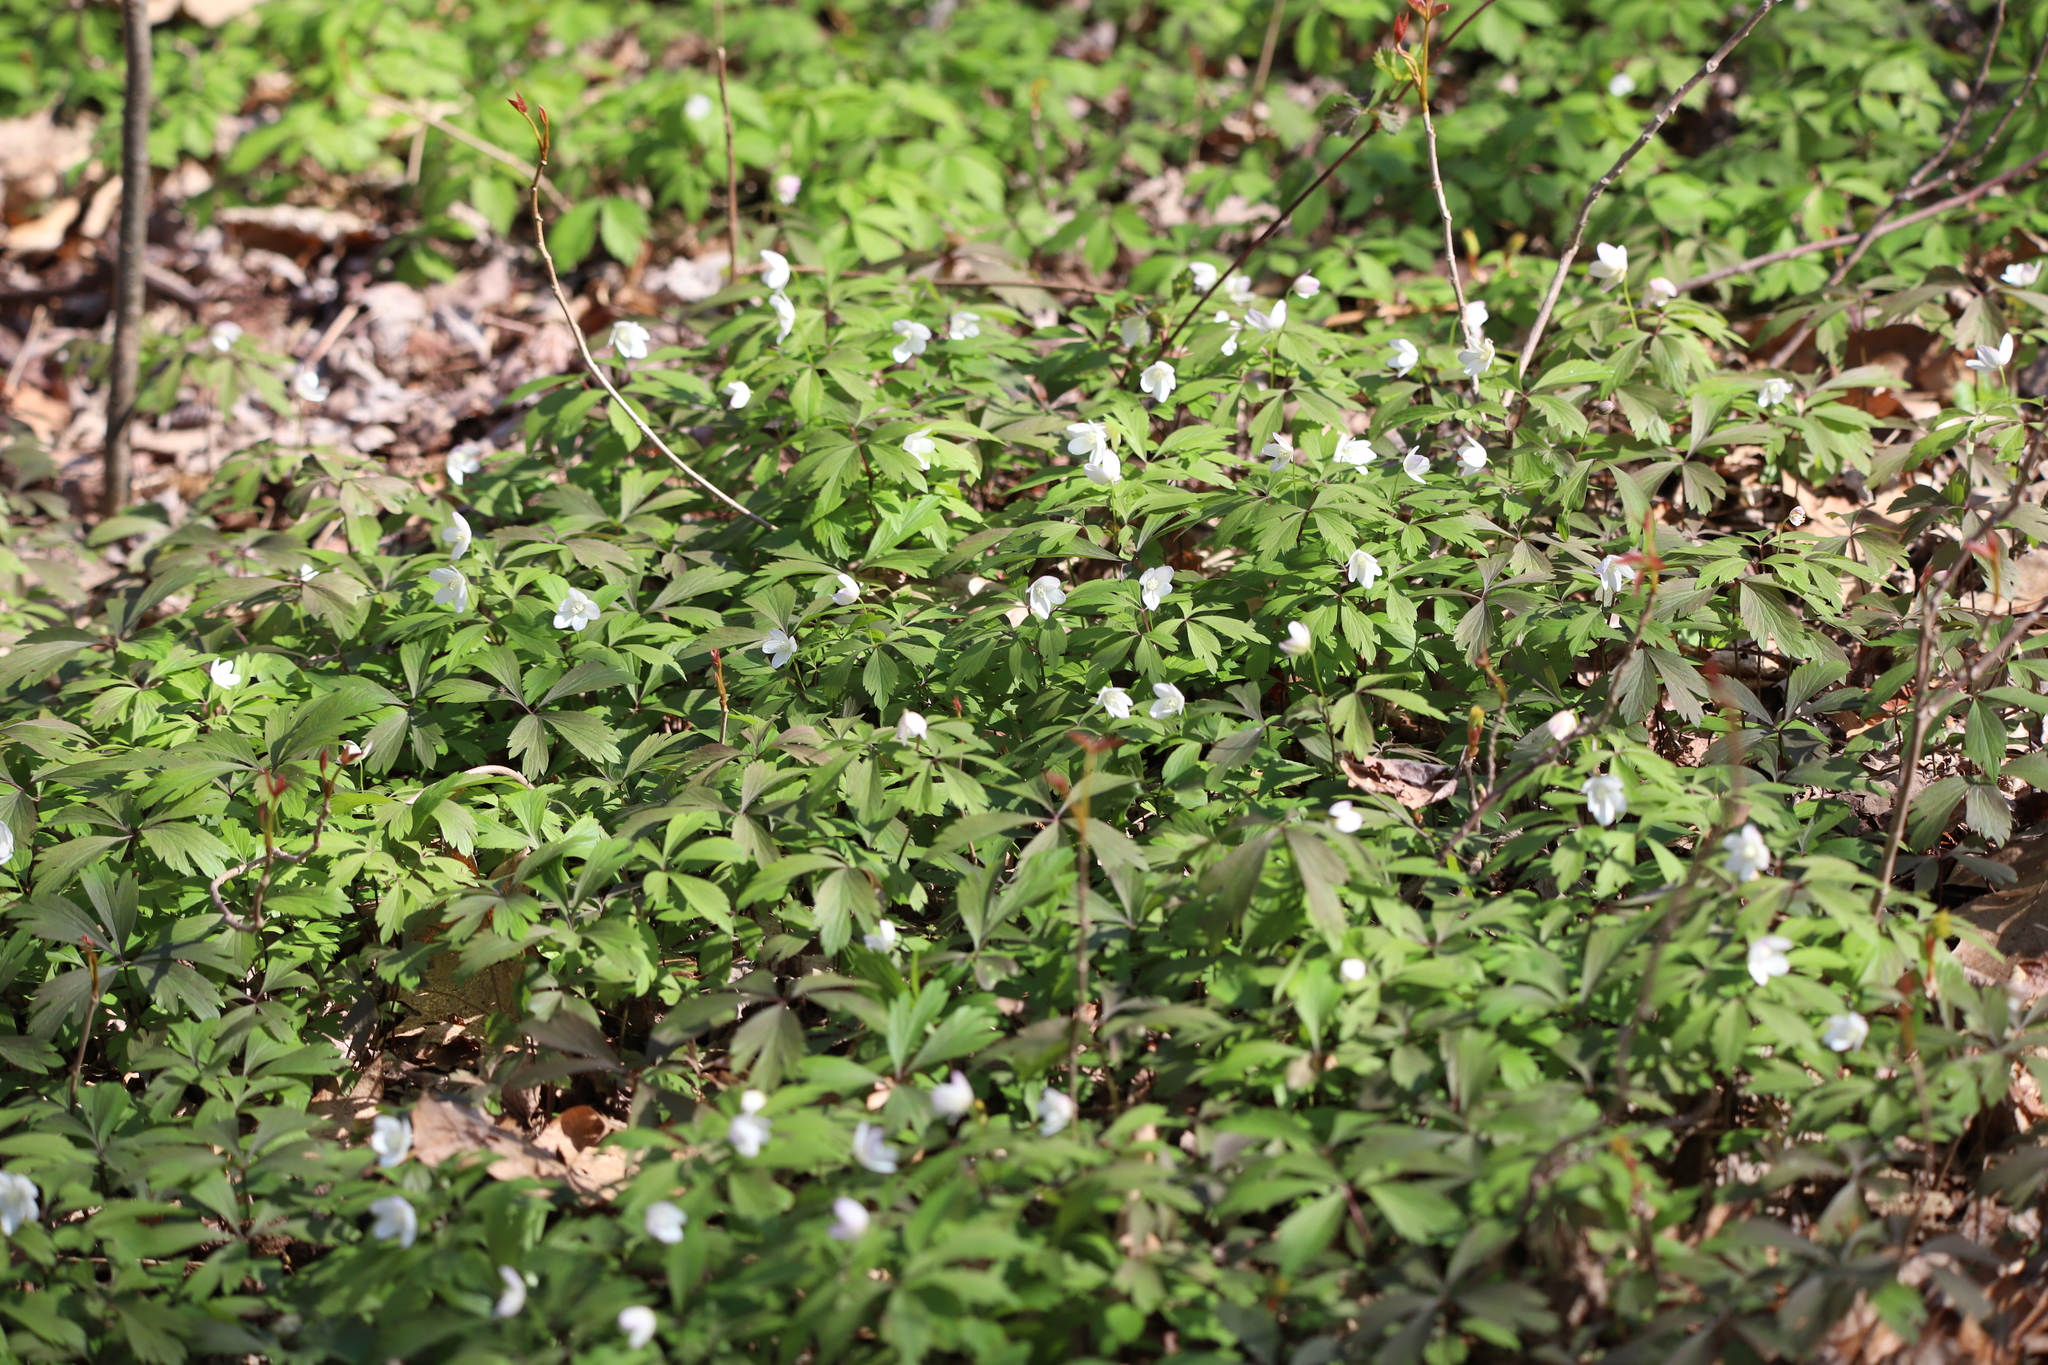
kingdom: Plantae
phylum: Tracheophyta
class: Magnoliopsida
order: Ranunculales
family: Ranunculaceae
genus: Anemone
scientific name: Anemone quinquefolia
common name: Wood anemone
